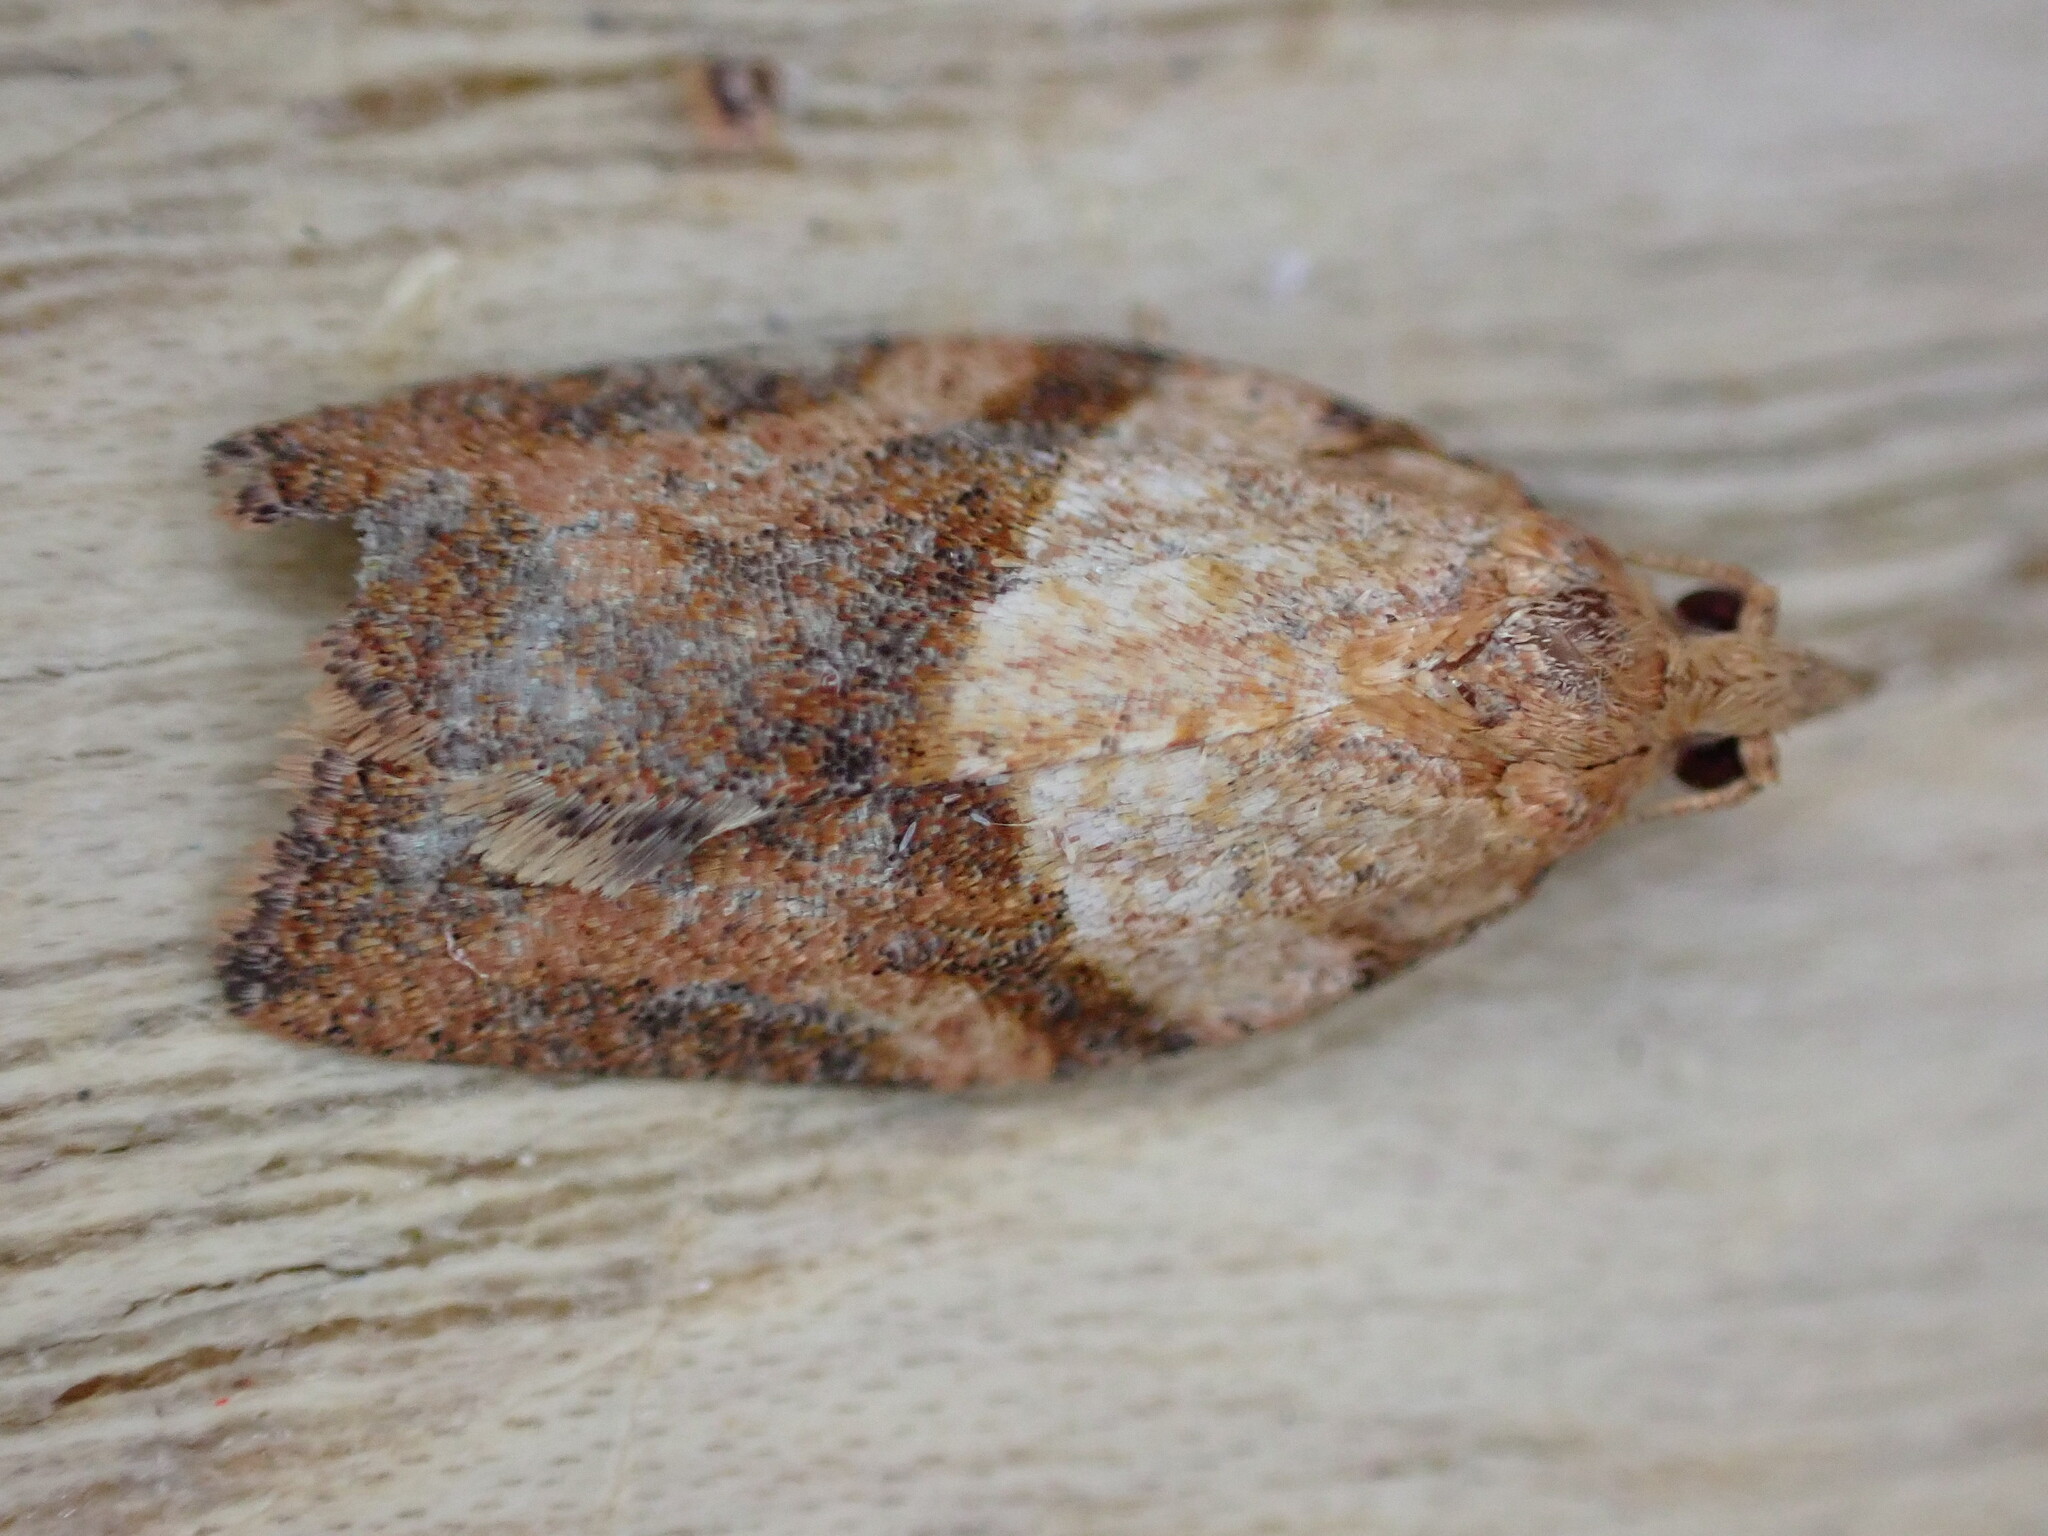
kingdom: Animalia
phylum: Arthropoda
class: Insecta
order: Lepidoptera
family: Tortricidae
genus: Epiphyas
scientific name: Epiphyas postvittana
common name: Light brown apple moth
